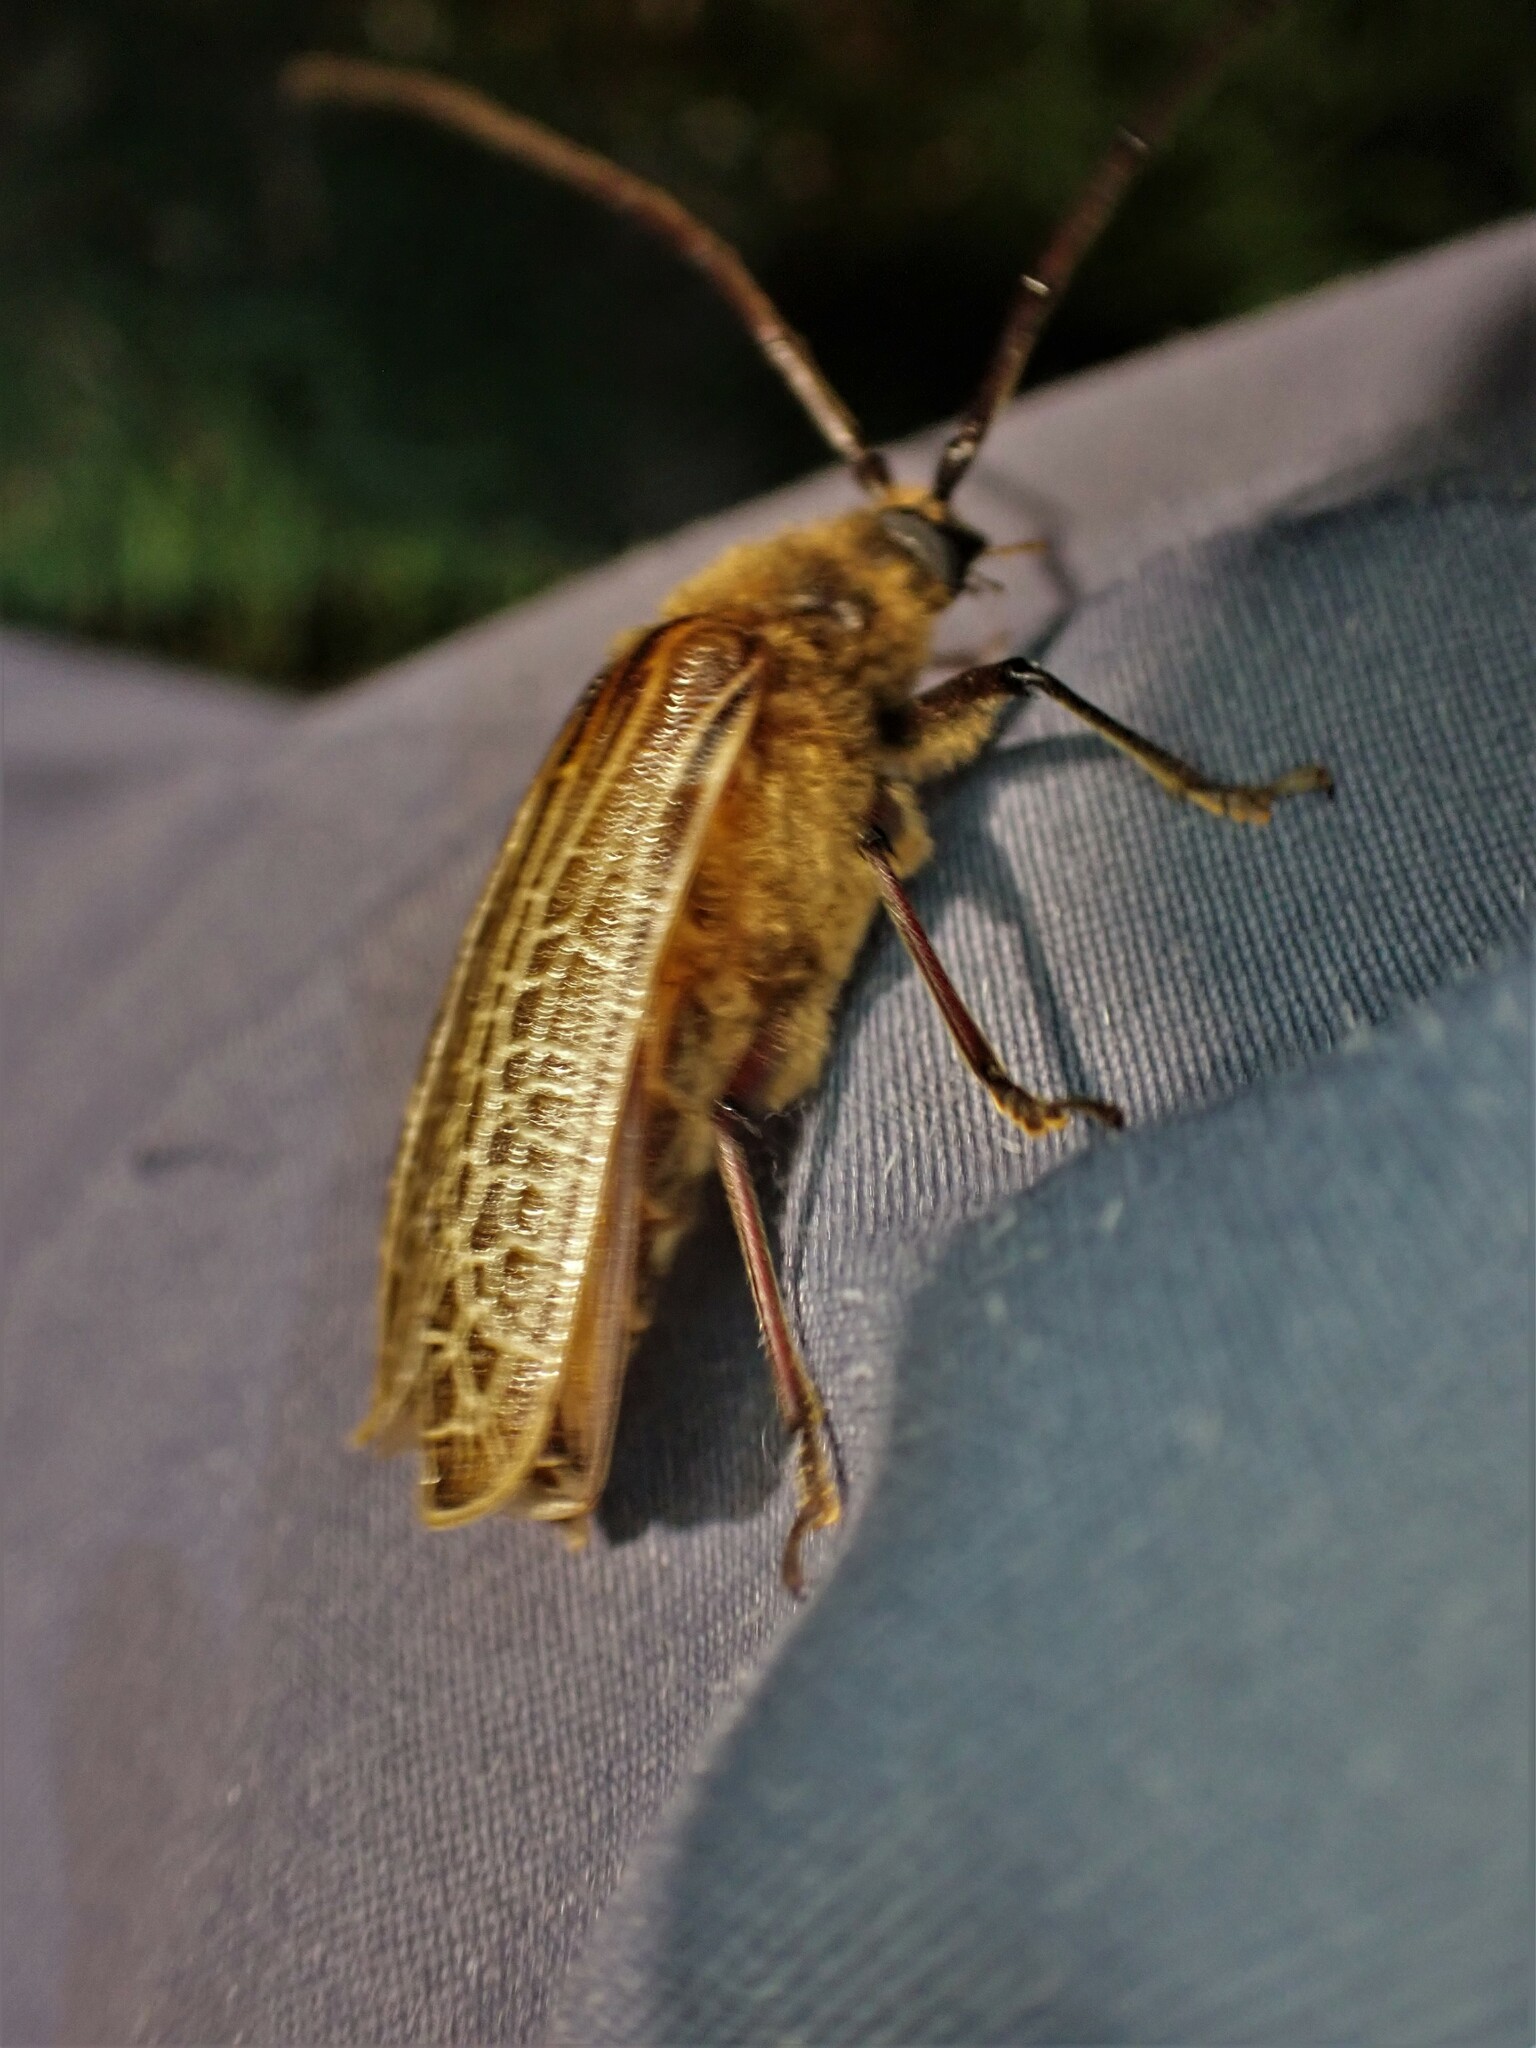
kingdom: Animalia
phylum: Arthropoda
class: Insecta
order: Coleoptera
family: Cerambycidae
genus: Prionoplus
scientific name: Prionoplus reticularis
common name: Huhu beetle
